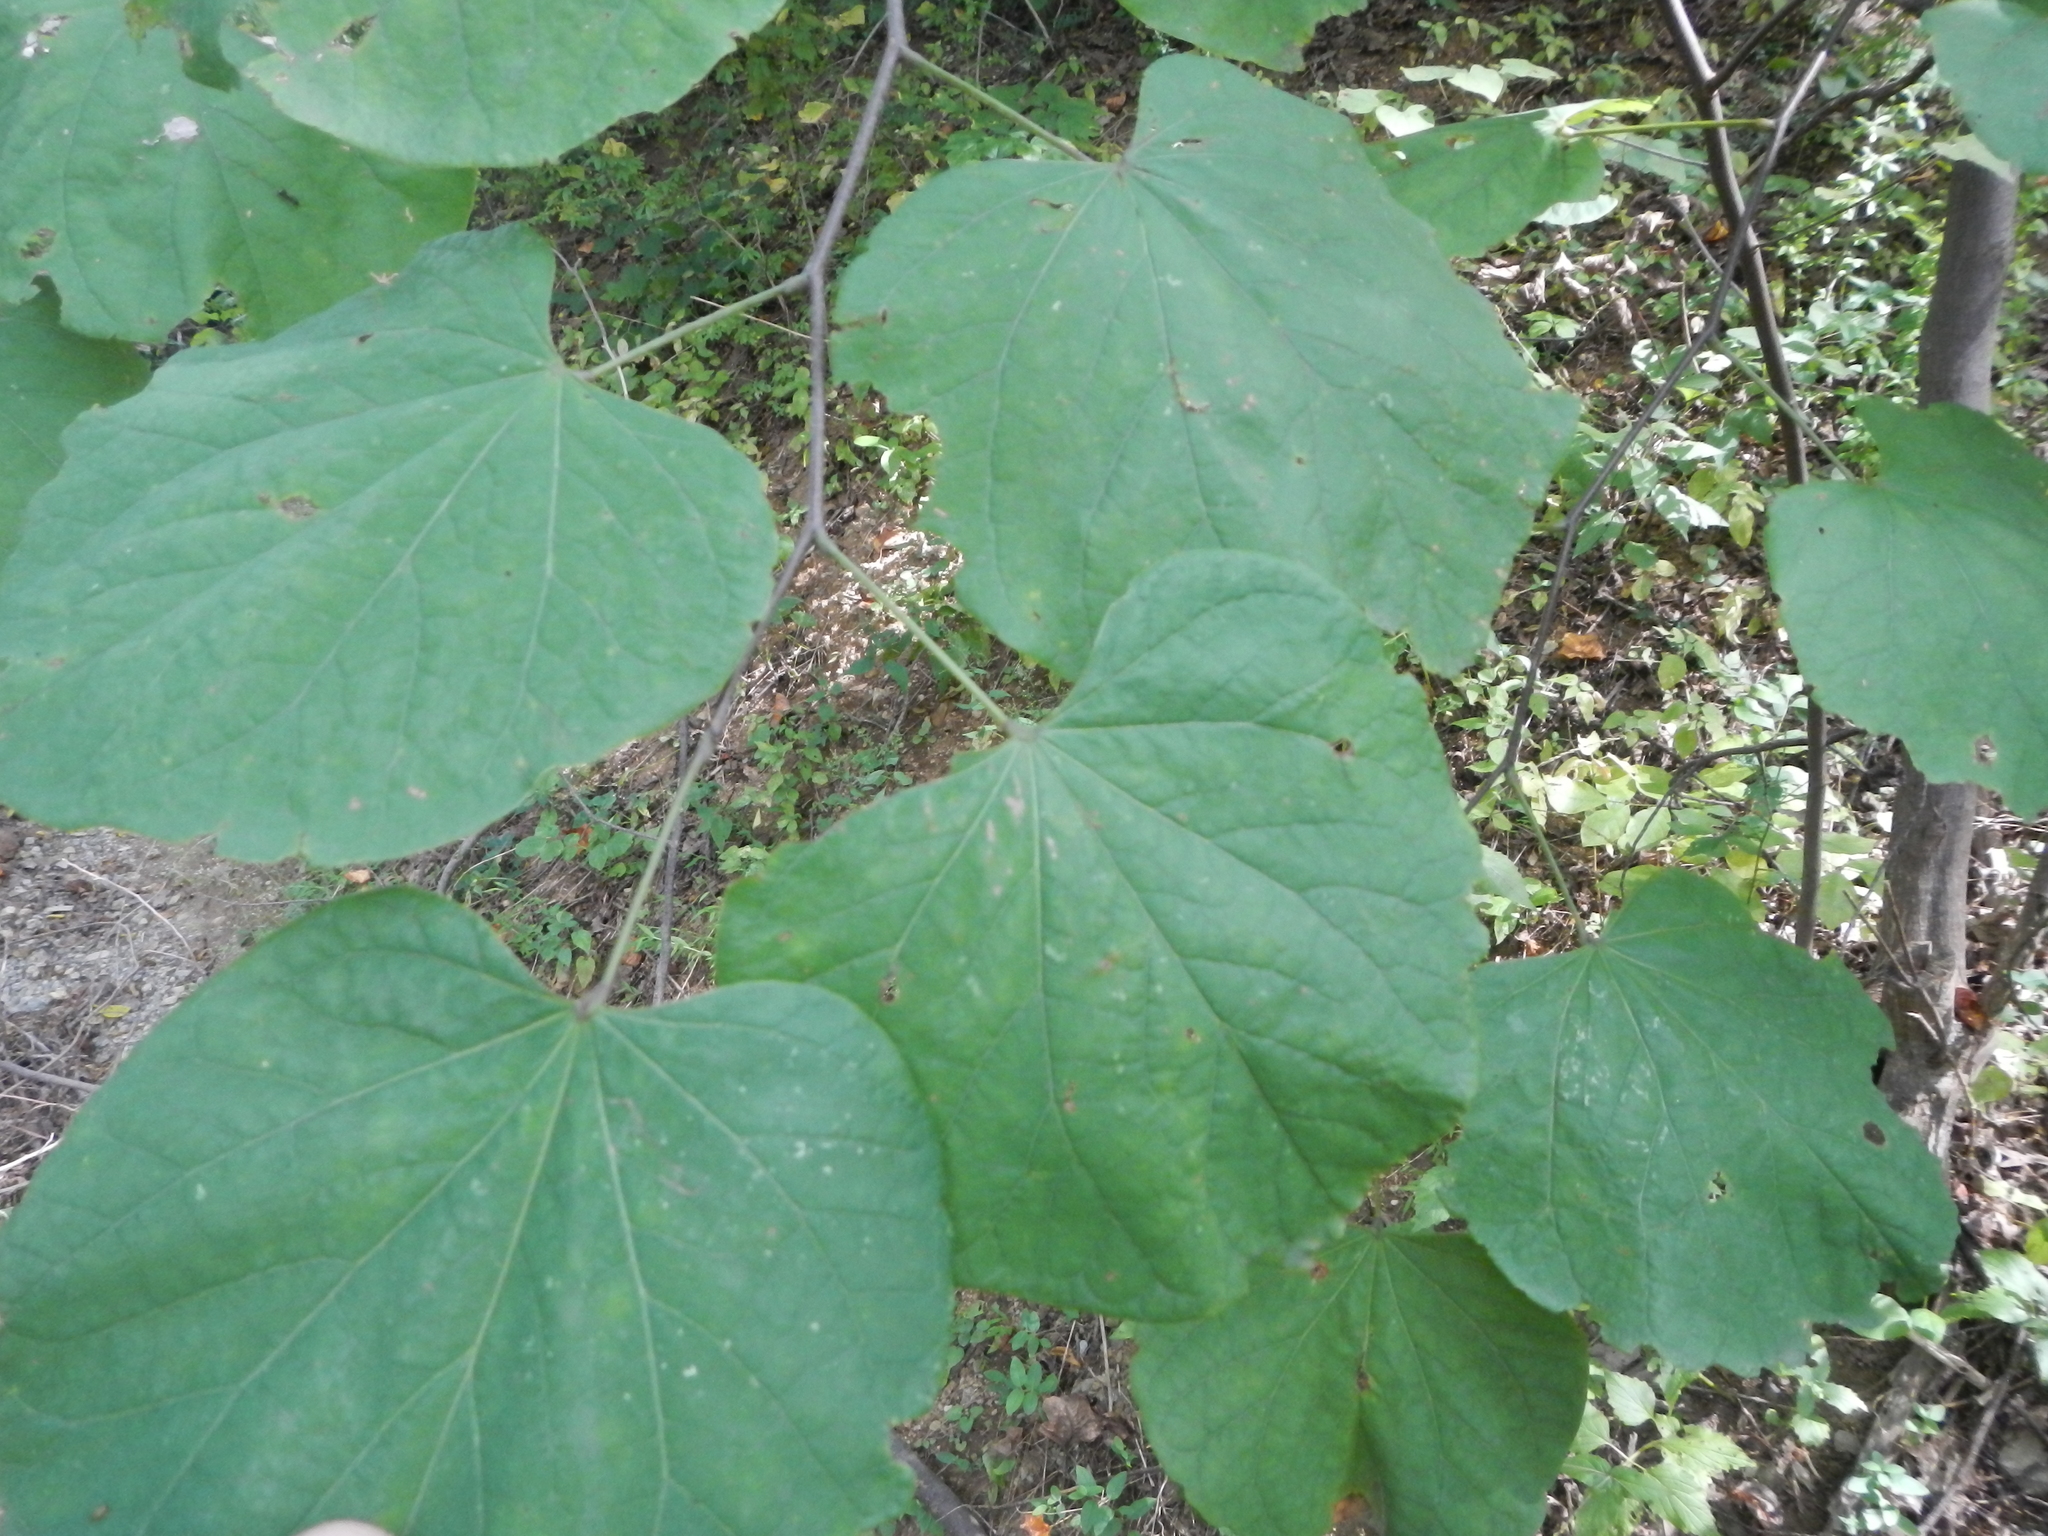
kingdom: Plantae
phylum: Tracheophyta
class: Magnoliopsida
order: Fabales
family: Fabaceae
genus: Cercis
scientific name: Cercis canadensis
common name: Eastern redbud
